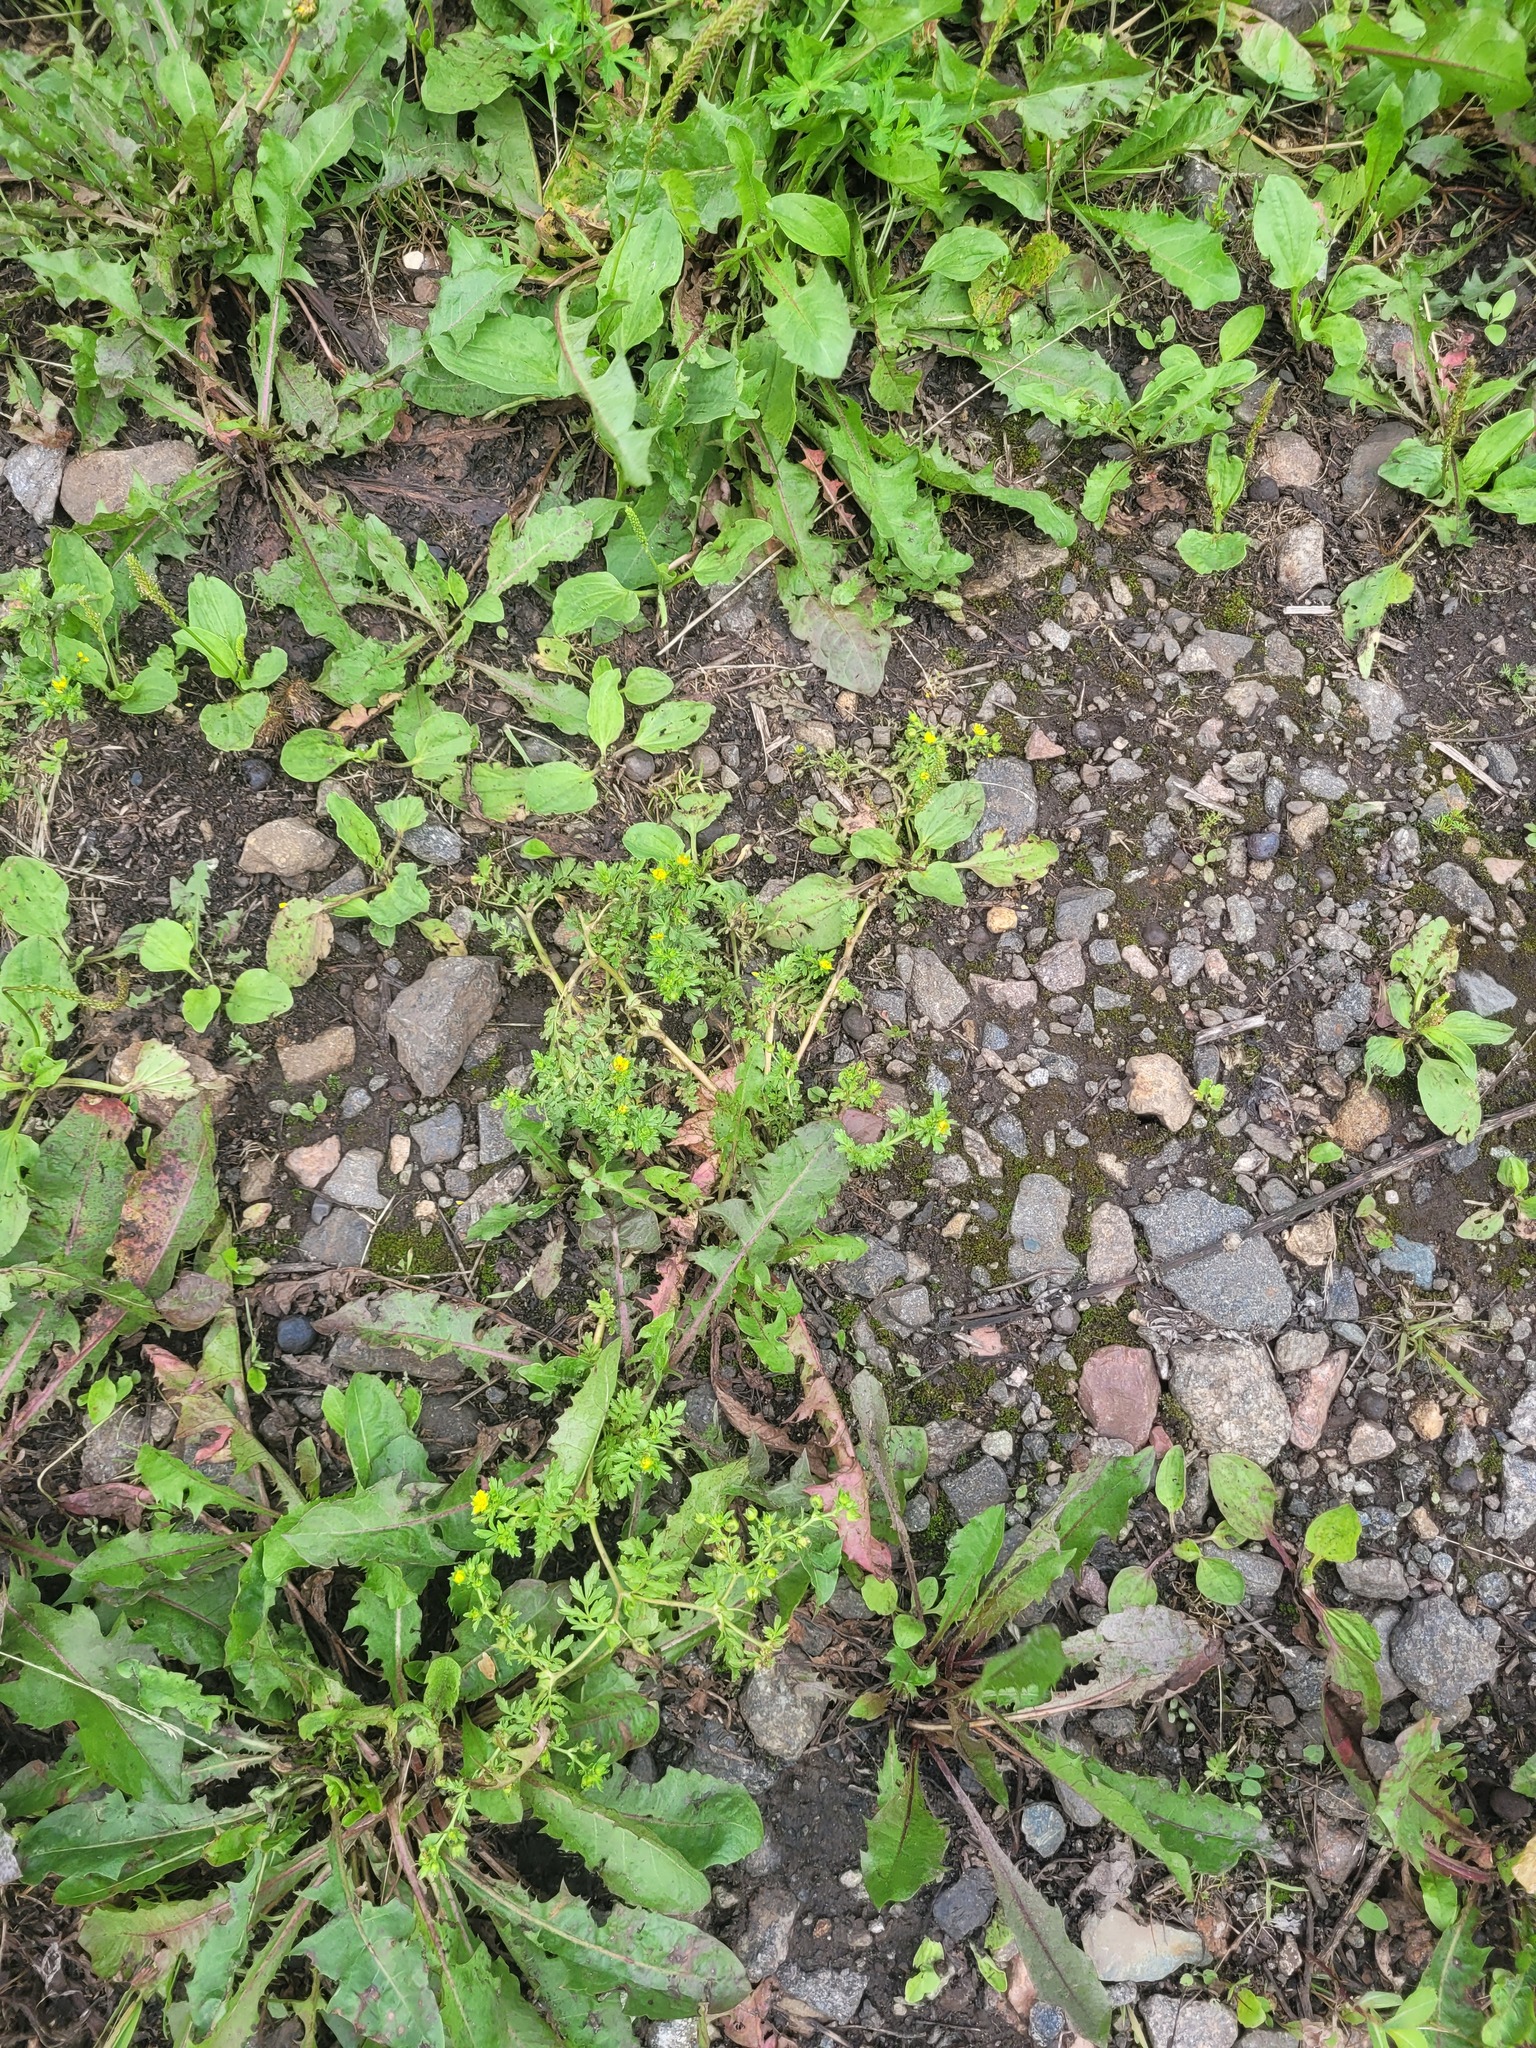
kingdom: Plantae
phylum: Tracheophyta
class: Magnoliopsida
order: Rosales
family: Rosaceae
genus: Potentilla
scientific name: Potentilla supina
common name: Prostrate cinquefoil
